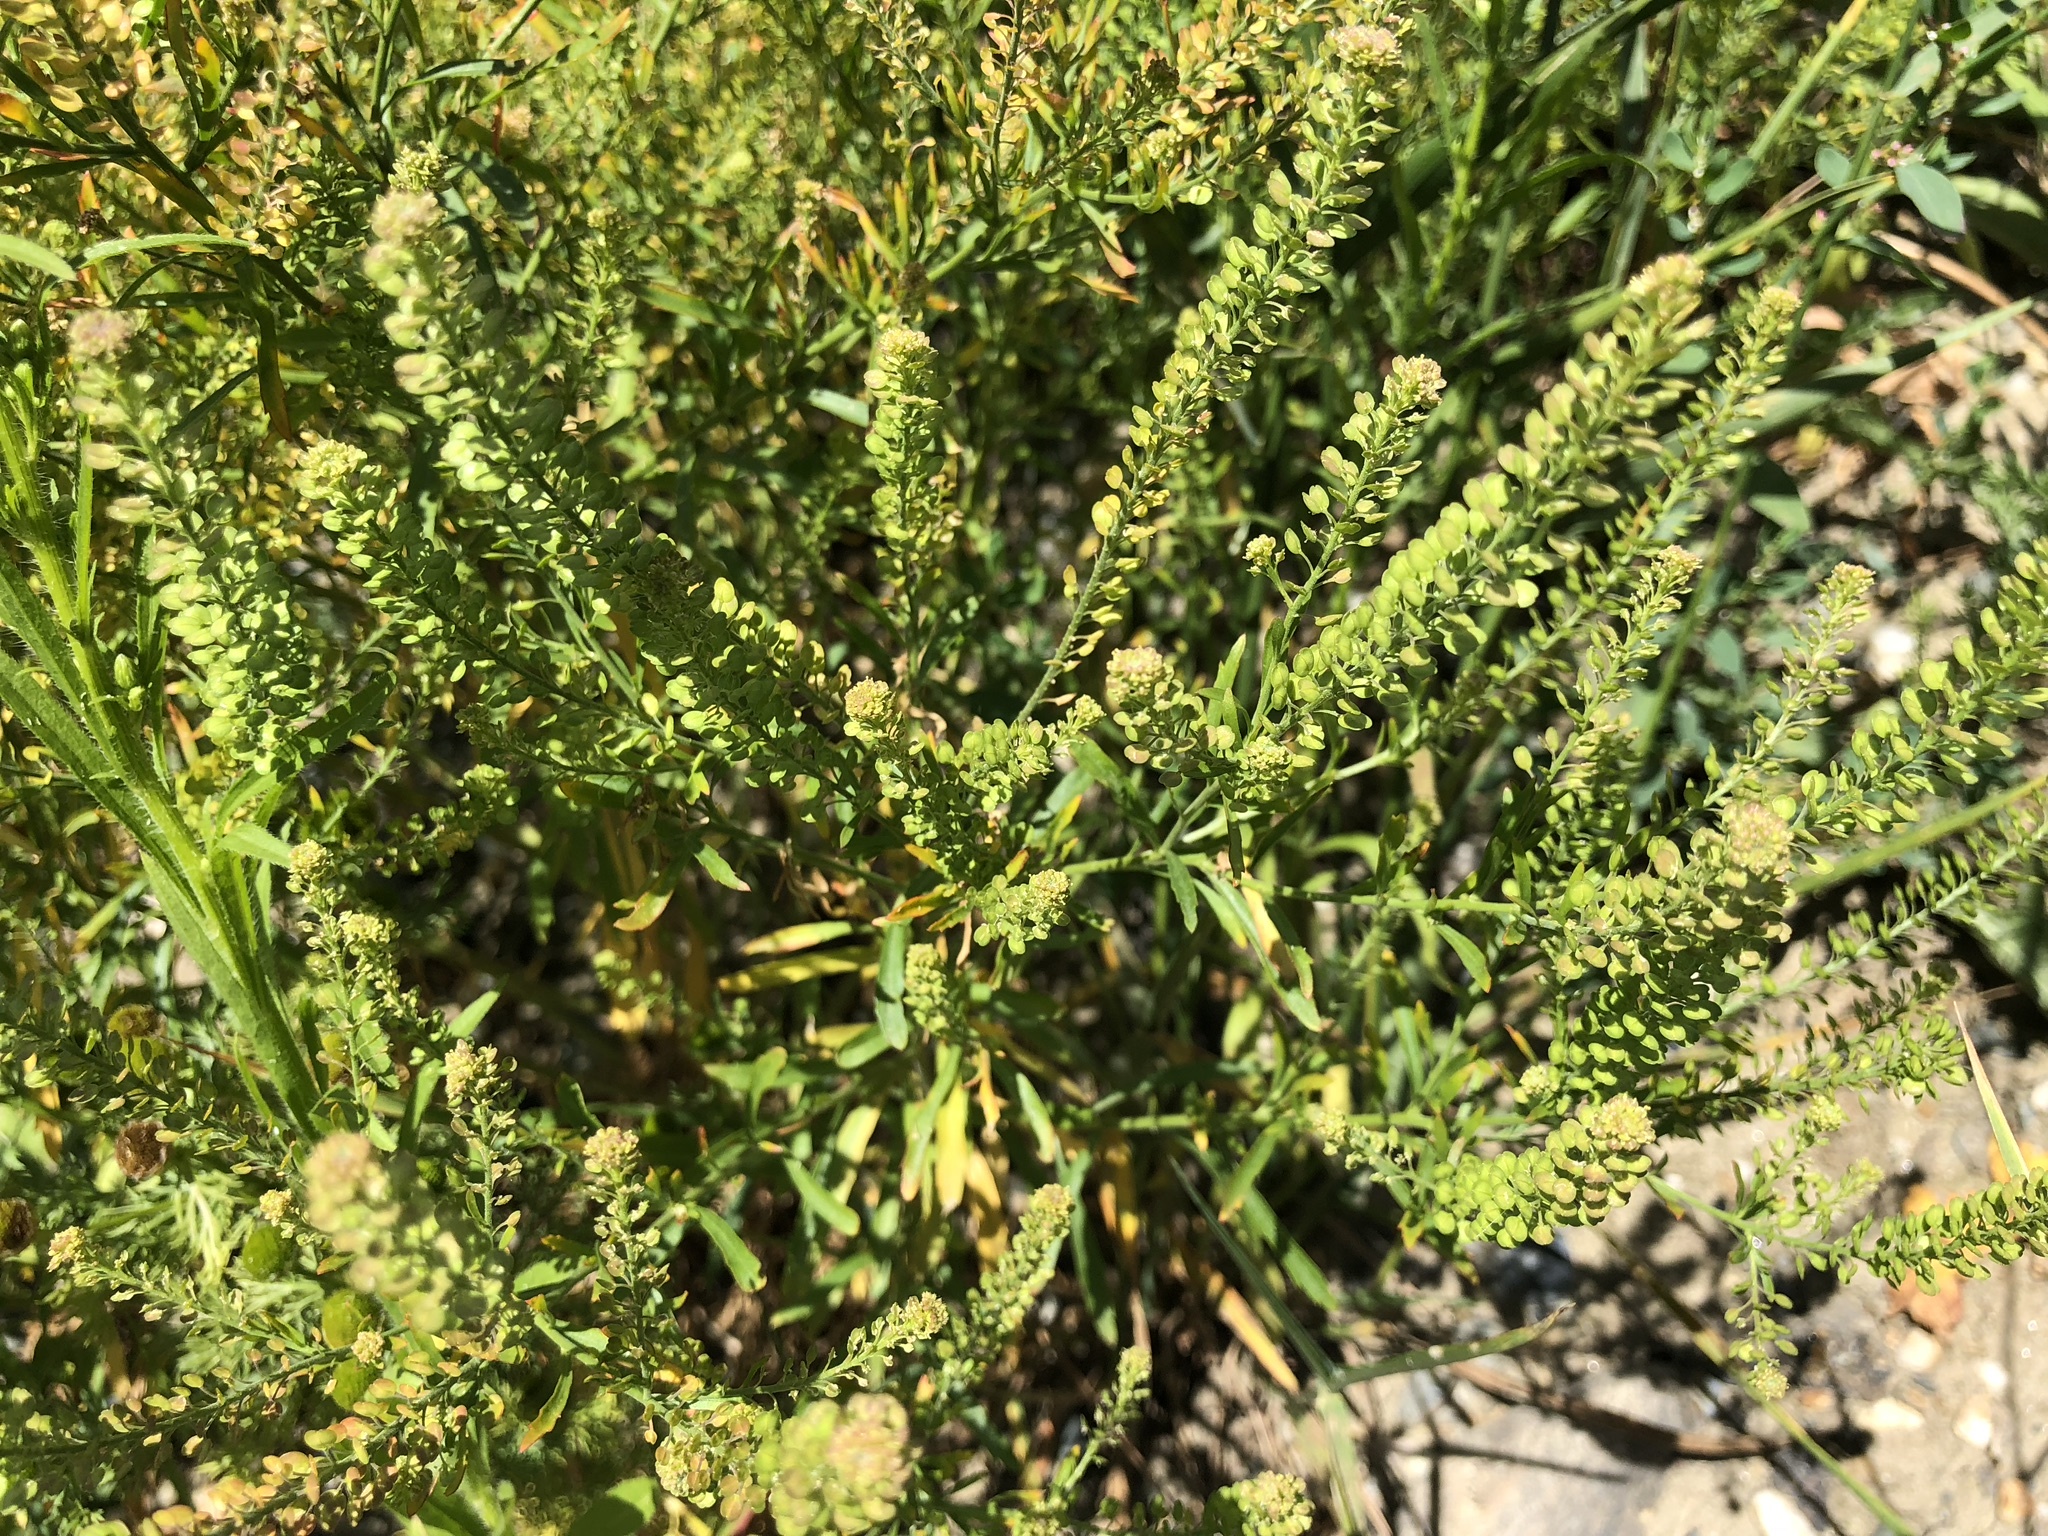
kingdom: Plantae
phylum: Tracheophyta
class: Magnoliopsida
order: Brassicales
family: Brassicaceae
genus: Lepidium
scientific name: Lepidium virginicum
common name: Least pepperwort
